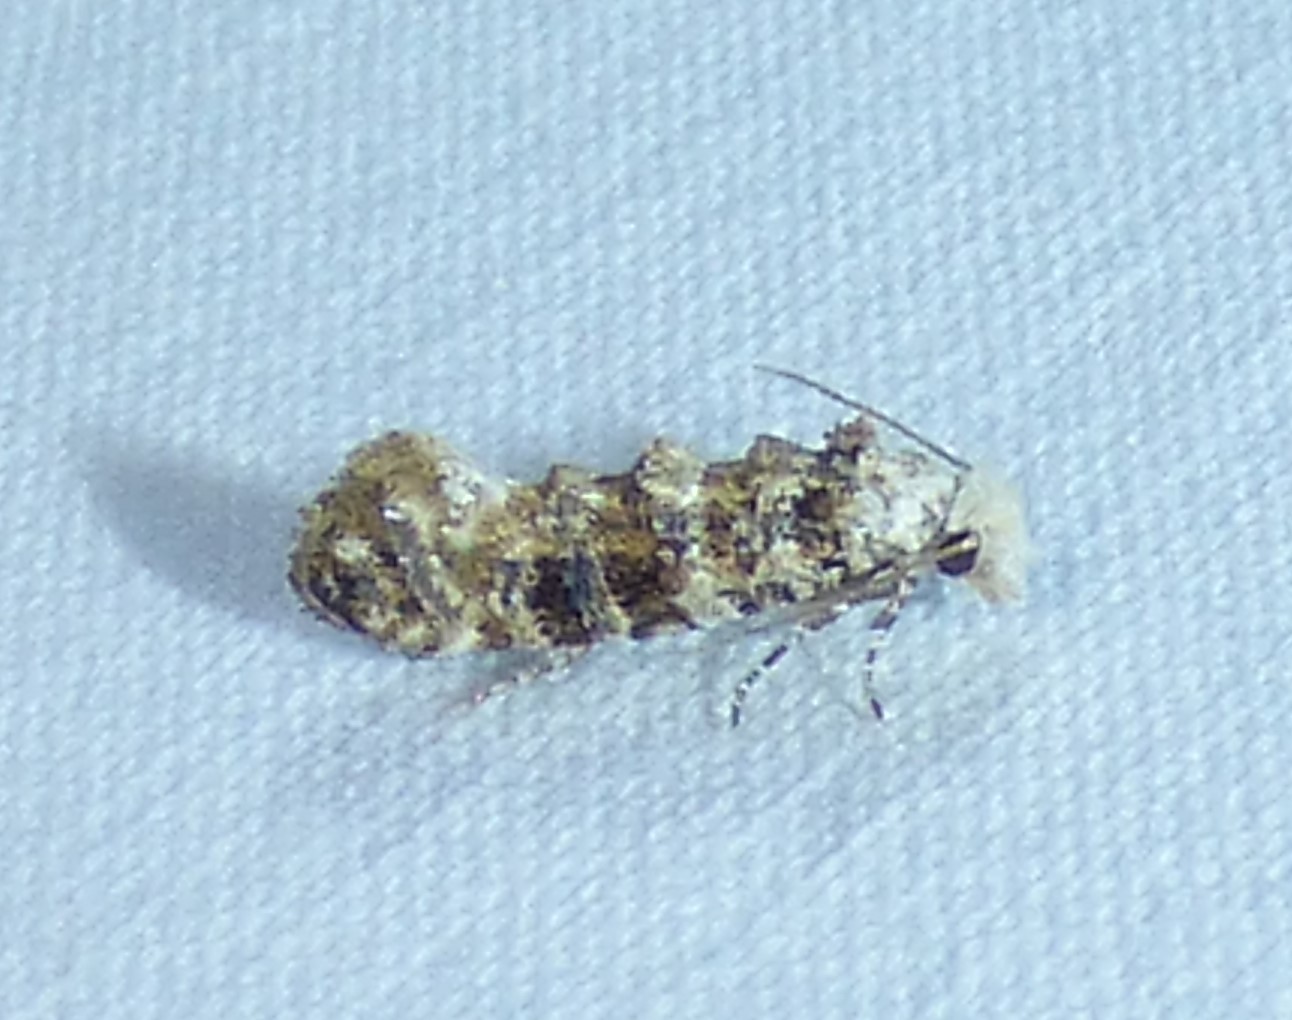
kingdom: Animalia
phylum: Arthropoda
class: Insecta
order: Lepidoptera
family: Tineidae
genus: Xylesthia
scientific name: Xylesthia pruniramiella
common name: Clemens' bark moth
